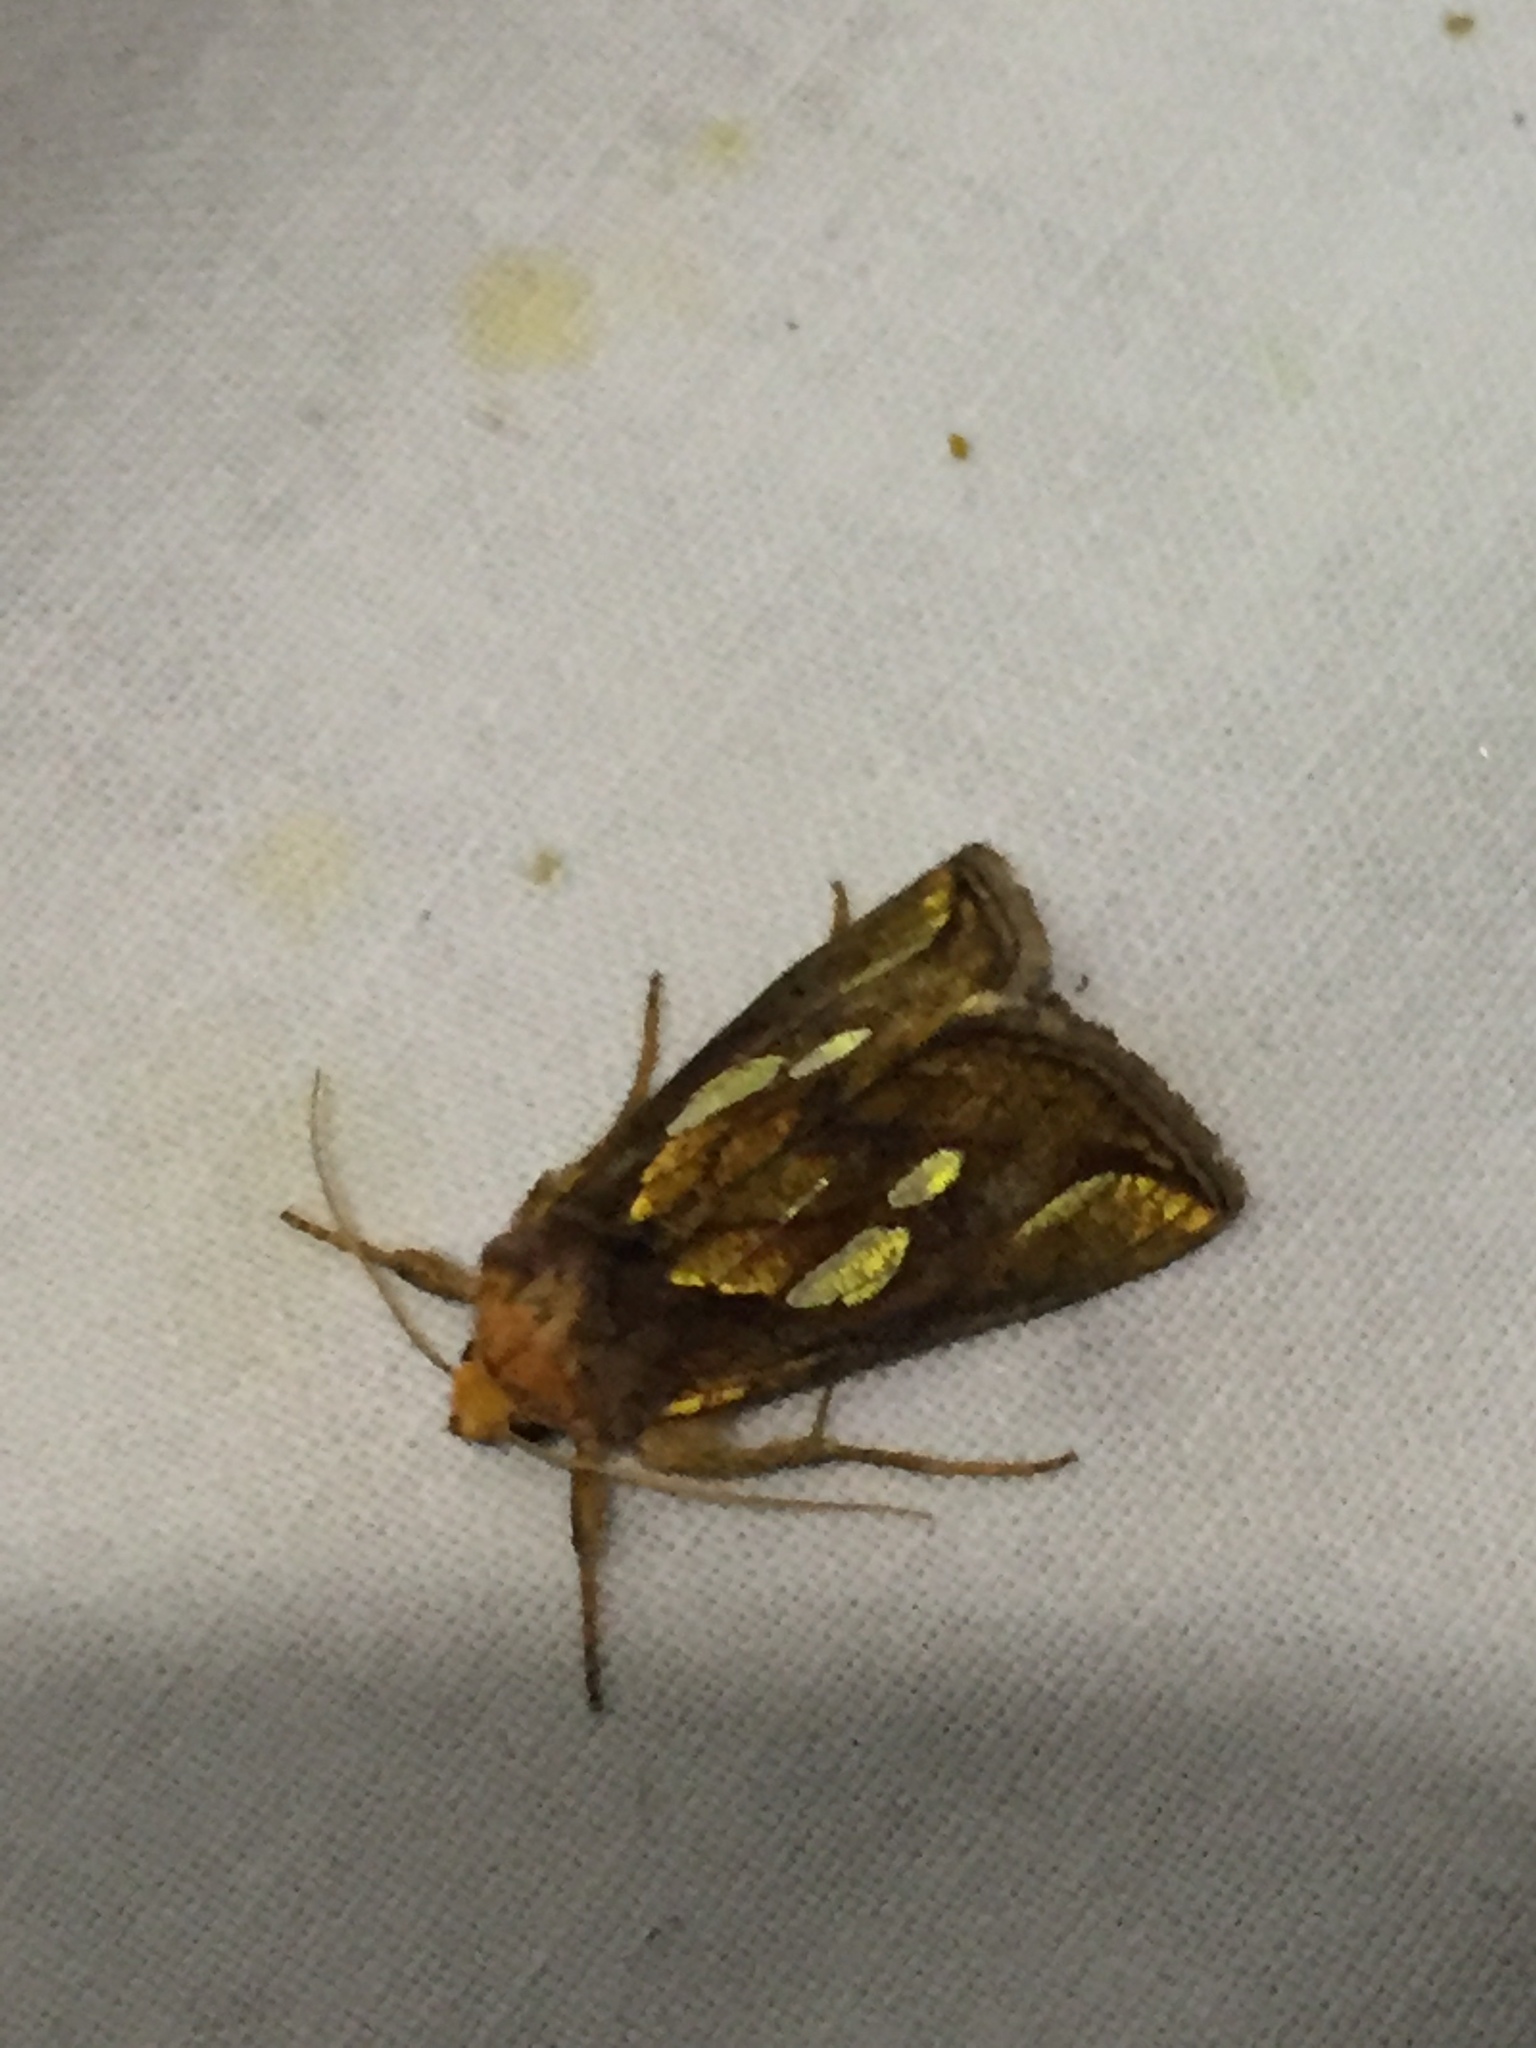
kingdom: Animalia
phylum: Arthropoda
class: Insecta
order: Lepidoptera
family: Noctuidae
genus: Plusia
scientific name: Plusia festucae
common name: Gold spot
